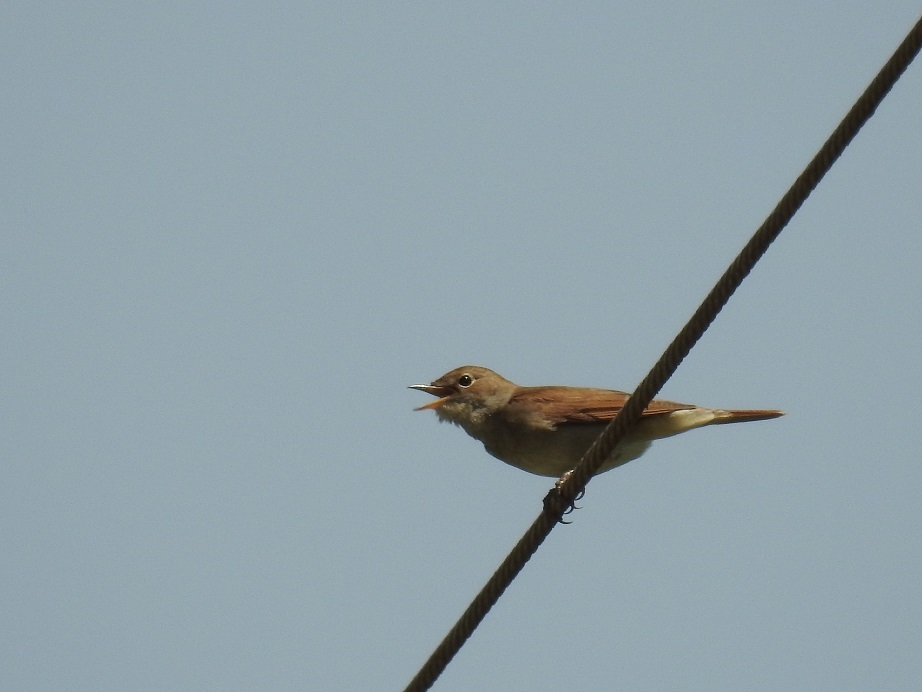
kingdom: Animalia
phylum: Chordata
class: Aves
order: Passeriformes
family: Muscicapidae
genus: Luscinia
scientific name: Luscinia megarhynchos
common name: Common nightingale
